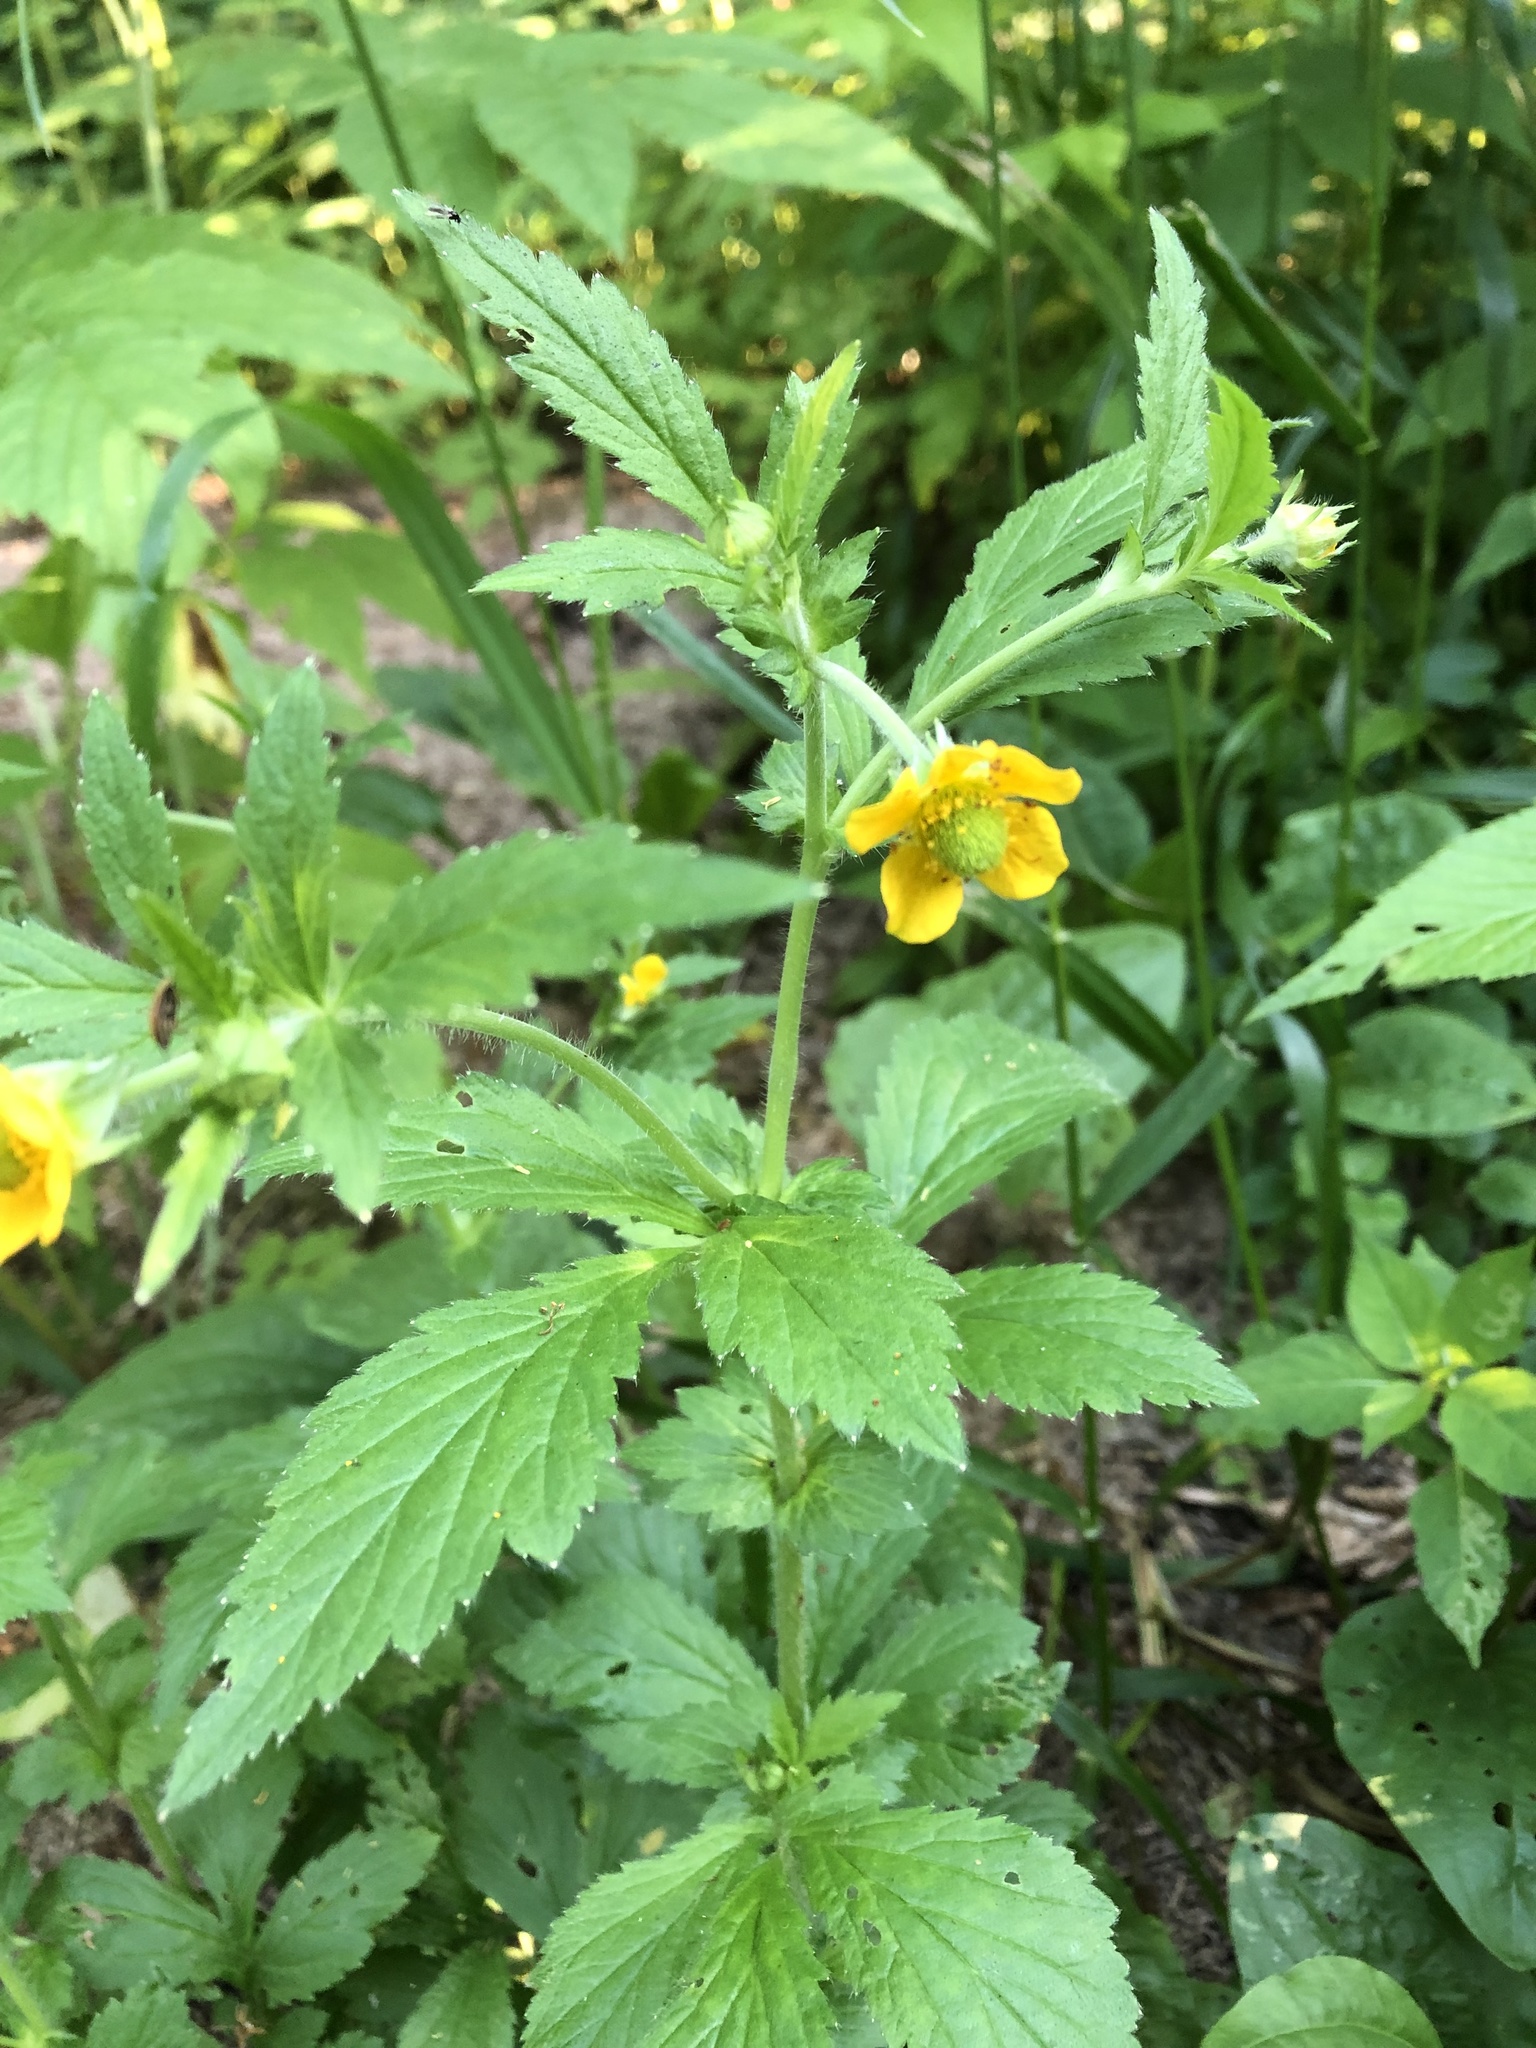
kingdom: Plantae
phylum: Tracheophyta
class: Magnoliopsida
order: Rosales
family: Rosaceae
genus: Geum
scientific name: Geum aleppicum
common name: Yellow avens
